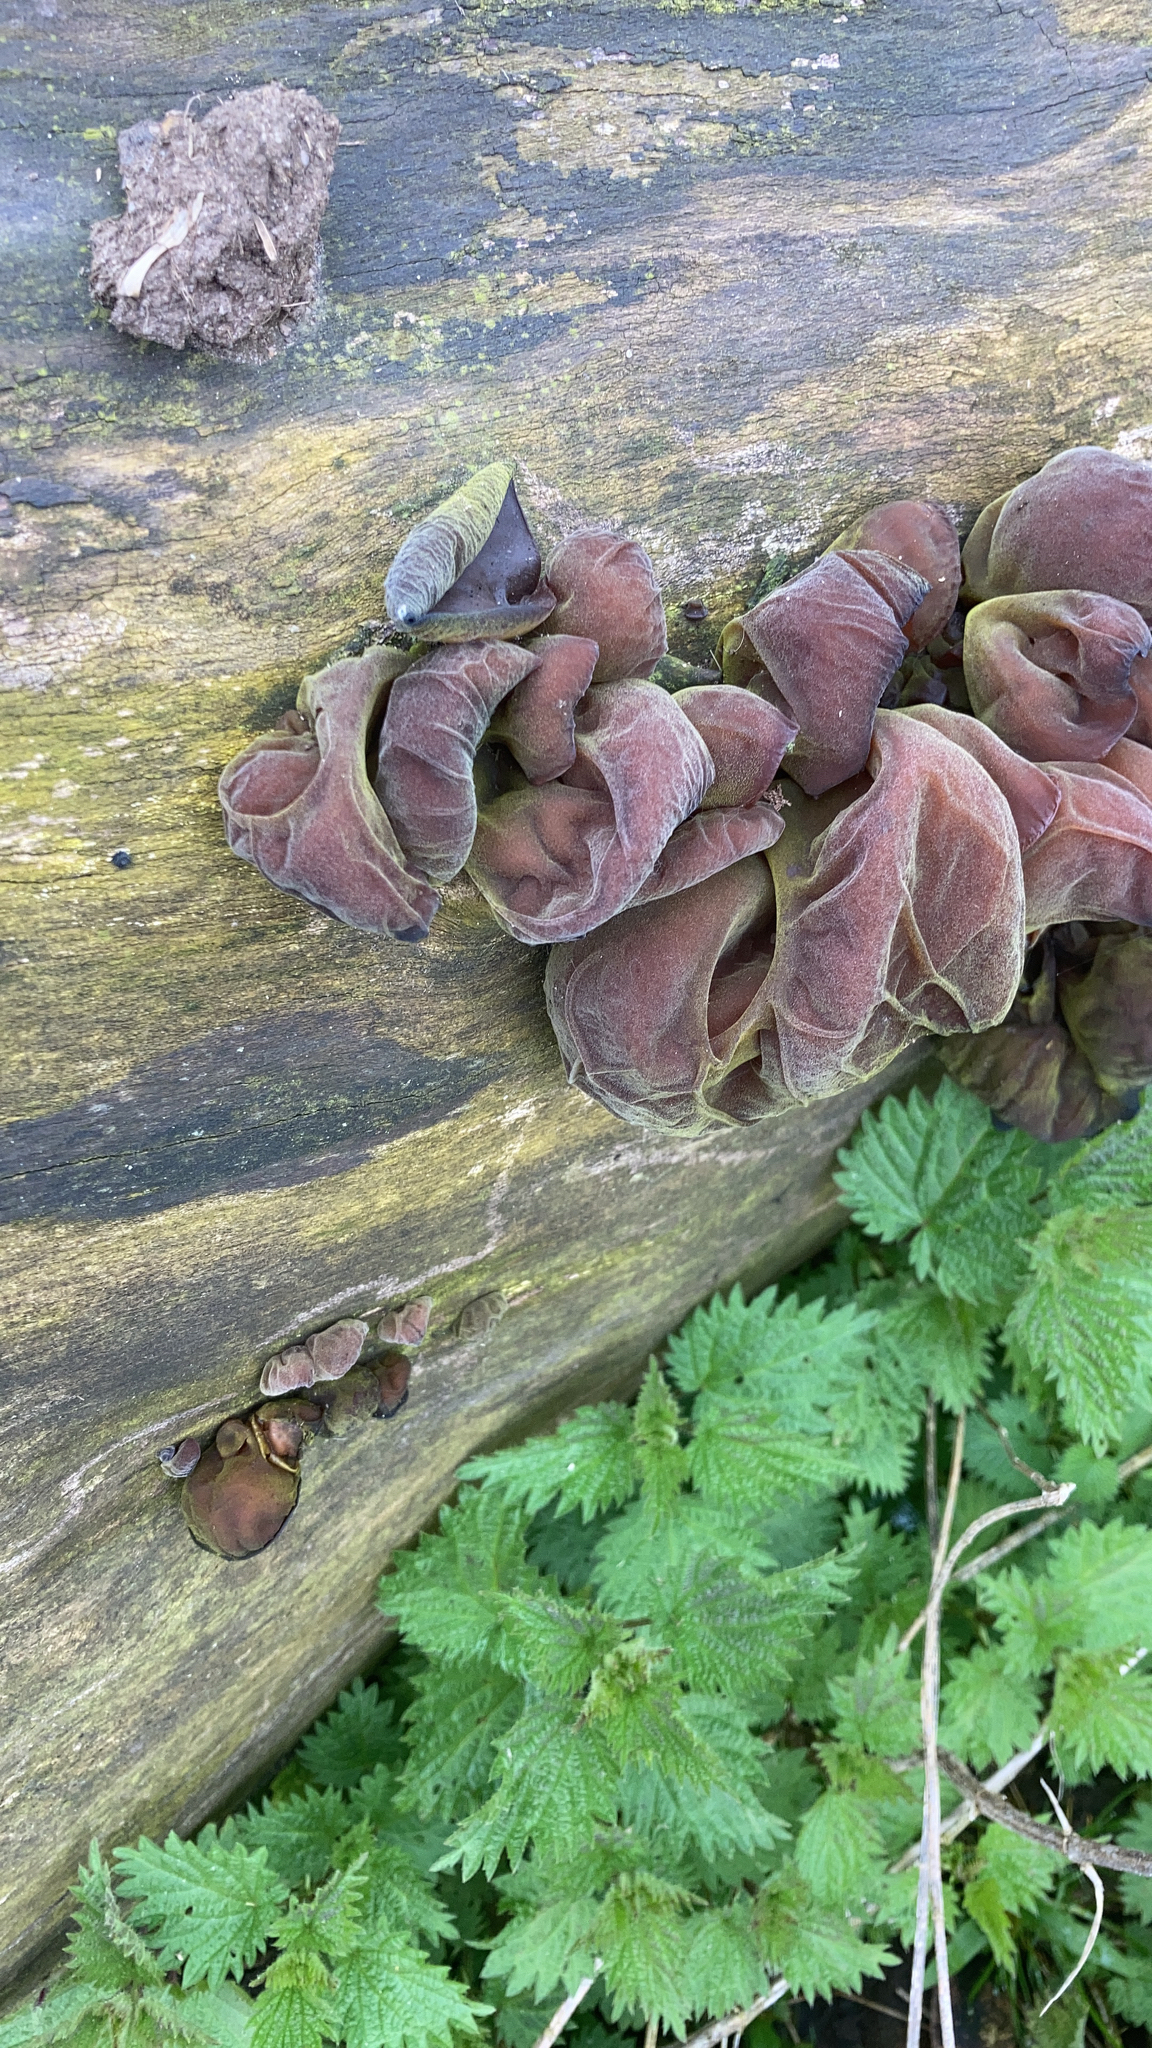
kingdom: Fungi
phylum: Basidiomycota
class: Agaricomycetes
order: Auriculariales
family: Auriculariaceae
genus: Auricularia
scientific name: Auricularia auricula-judae
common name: Jelly ear
